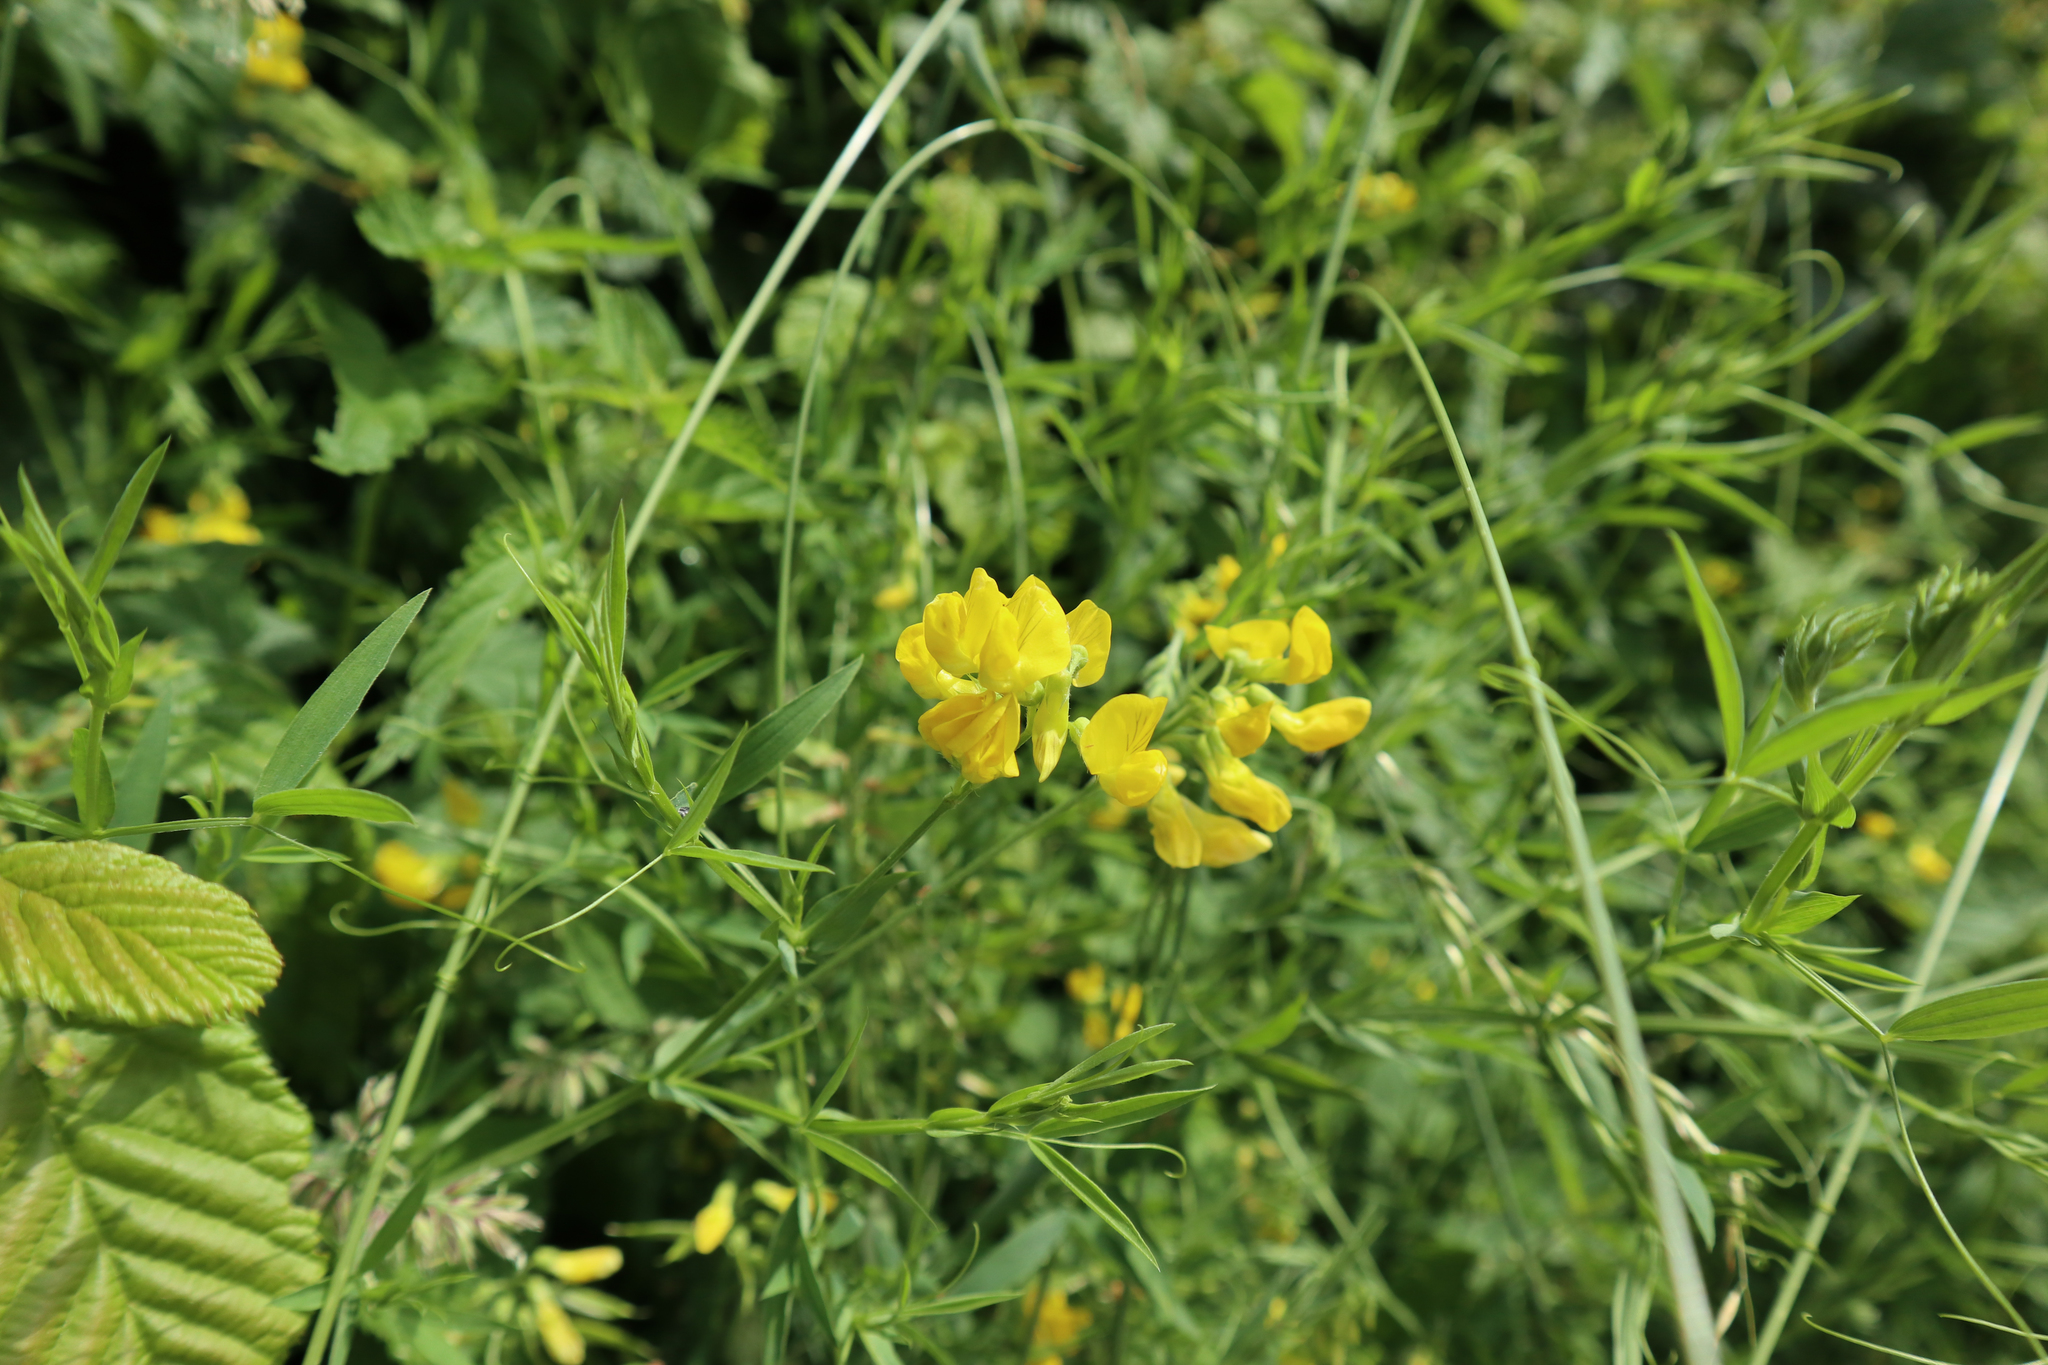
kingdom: Plantae
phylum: Tracheophyta
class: Magnoliopsida
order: Fabales
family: Fabaceae
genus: Lathyrus
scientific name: Lathyrus pratensis
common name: Meadow vetchling
